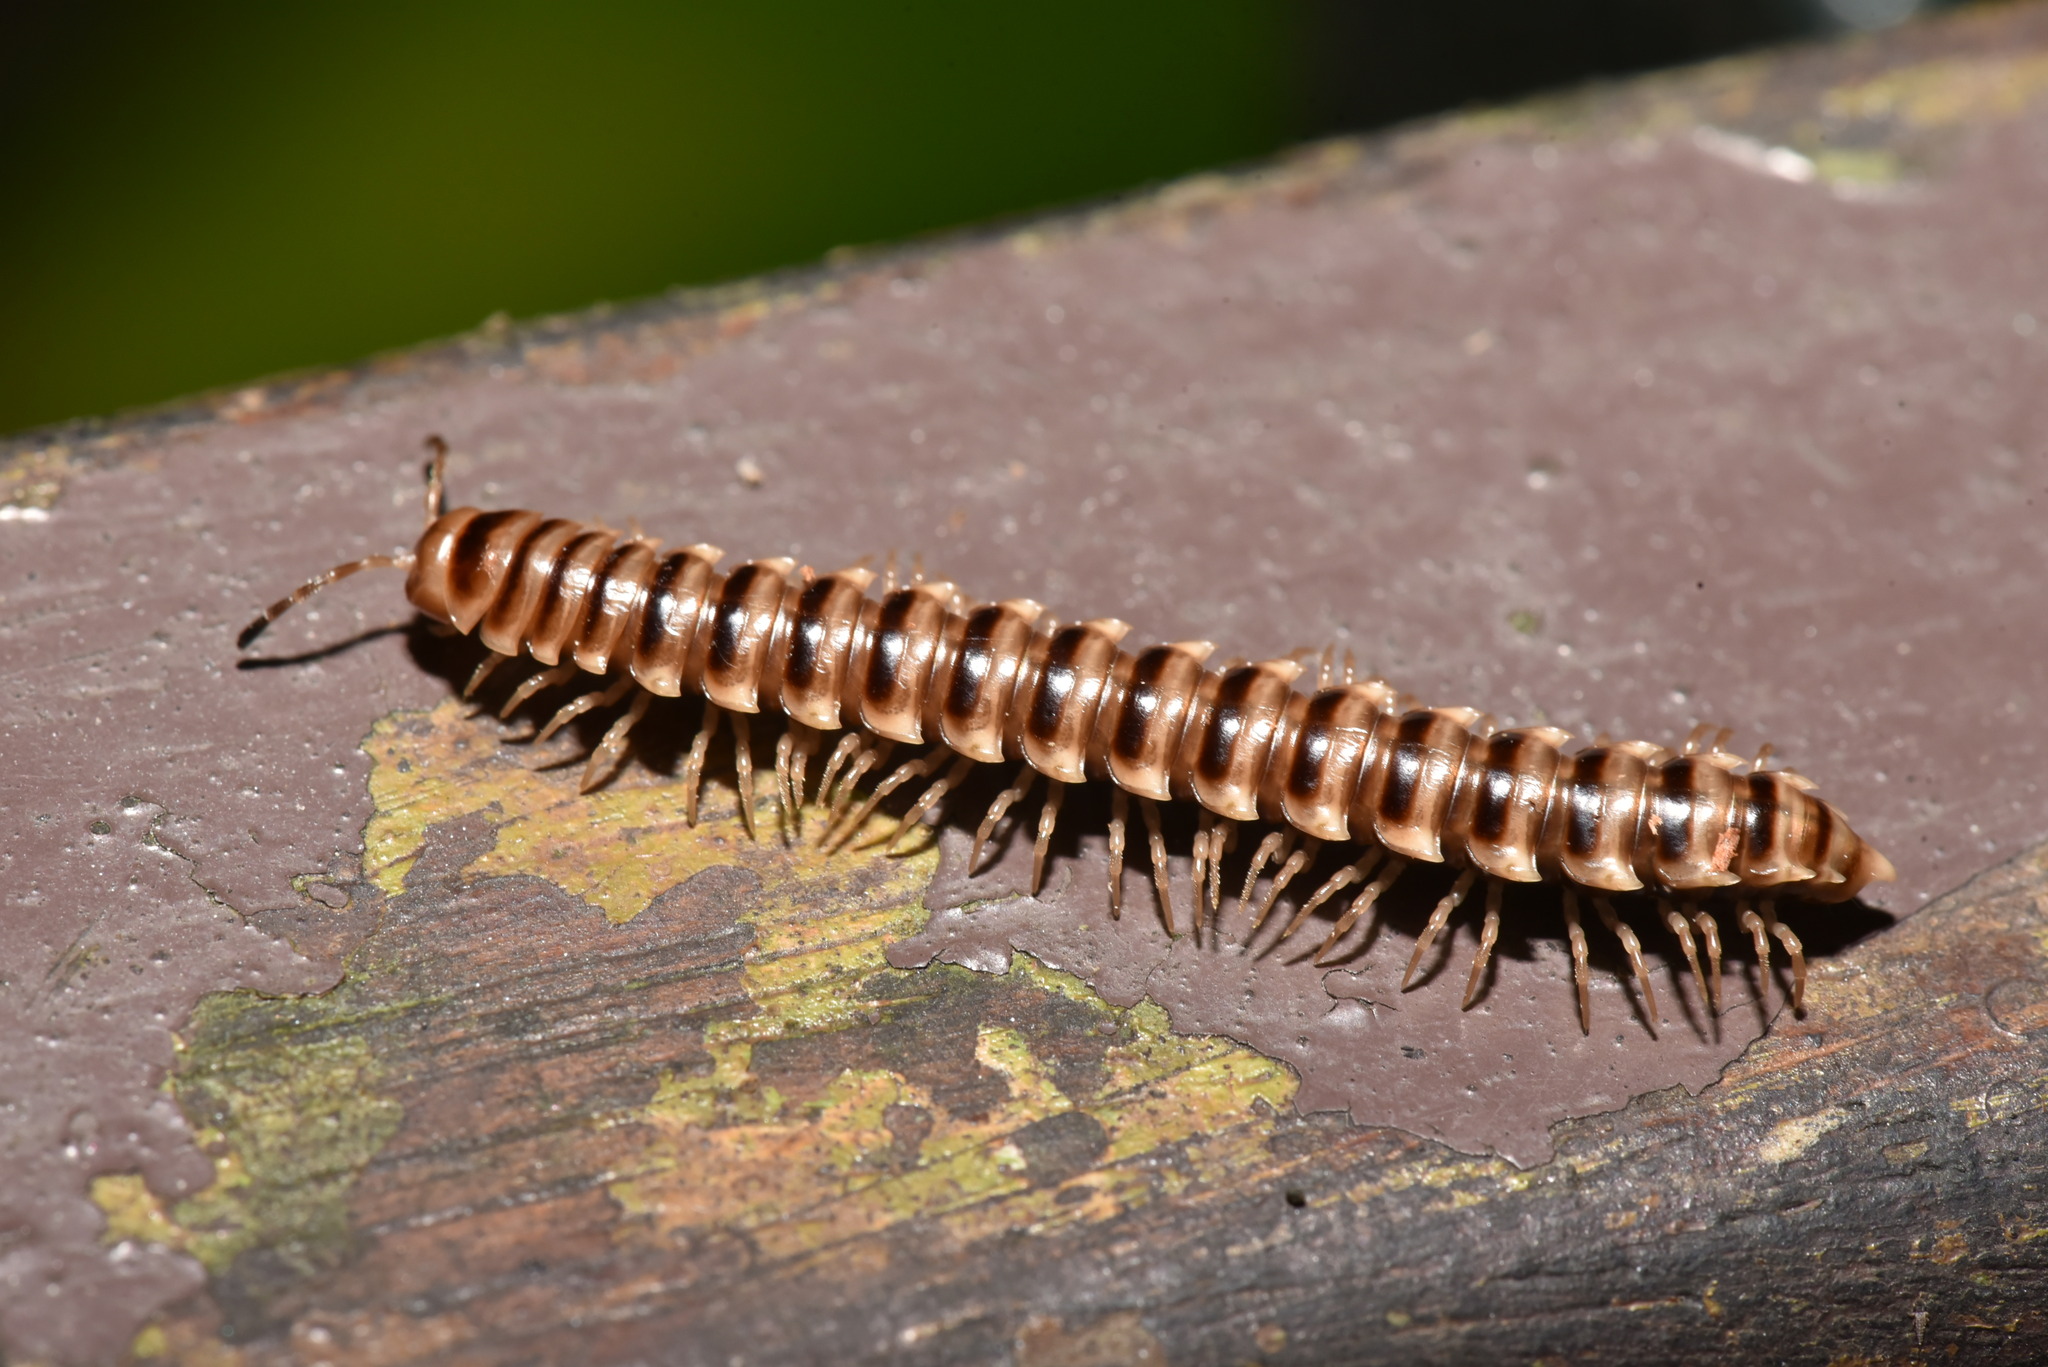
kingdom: Animalia
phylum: Arthropoda
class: Diplopoda
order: Polydesmida
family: Paradoxosomatidae
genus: Chamberlinius
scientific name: Chamberlinius hualienensis
